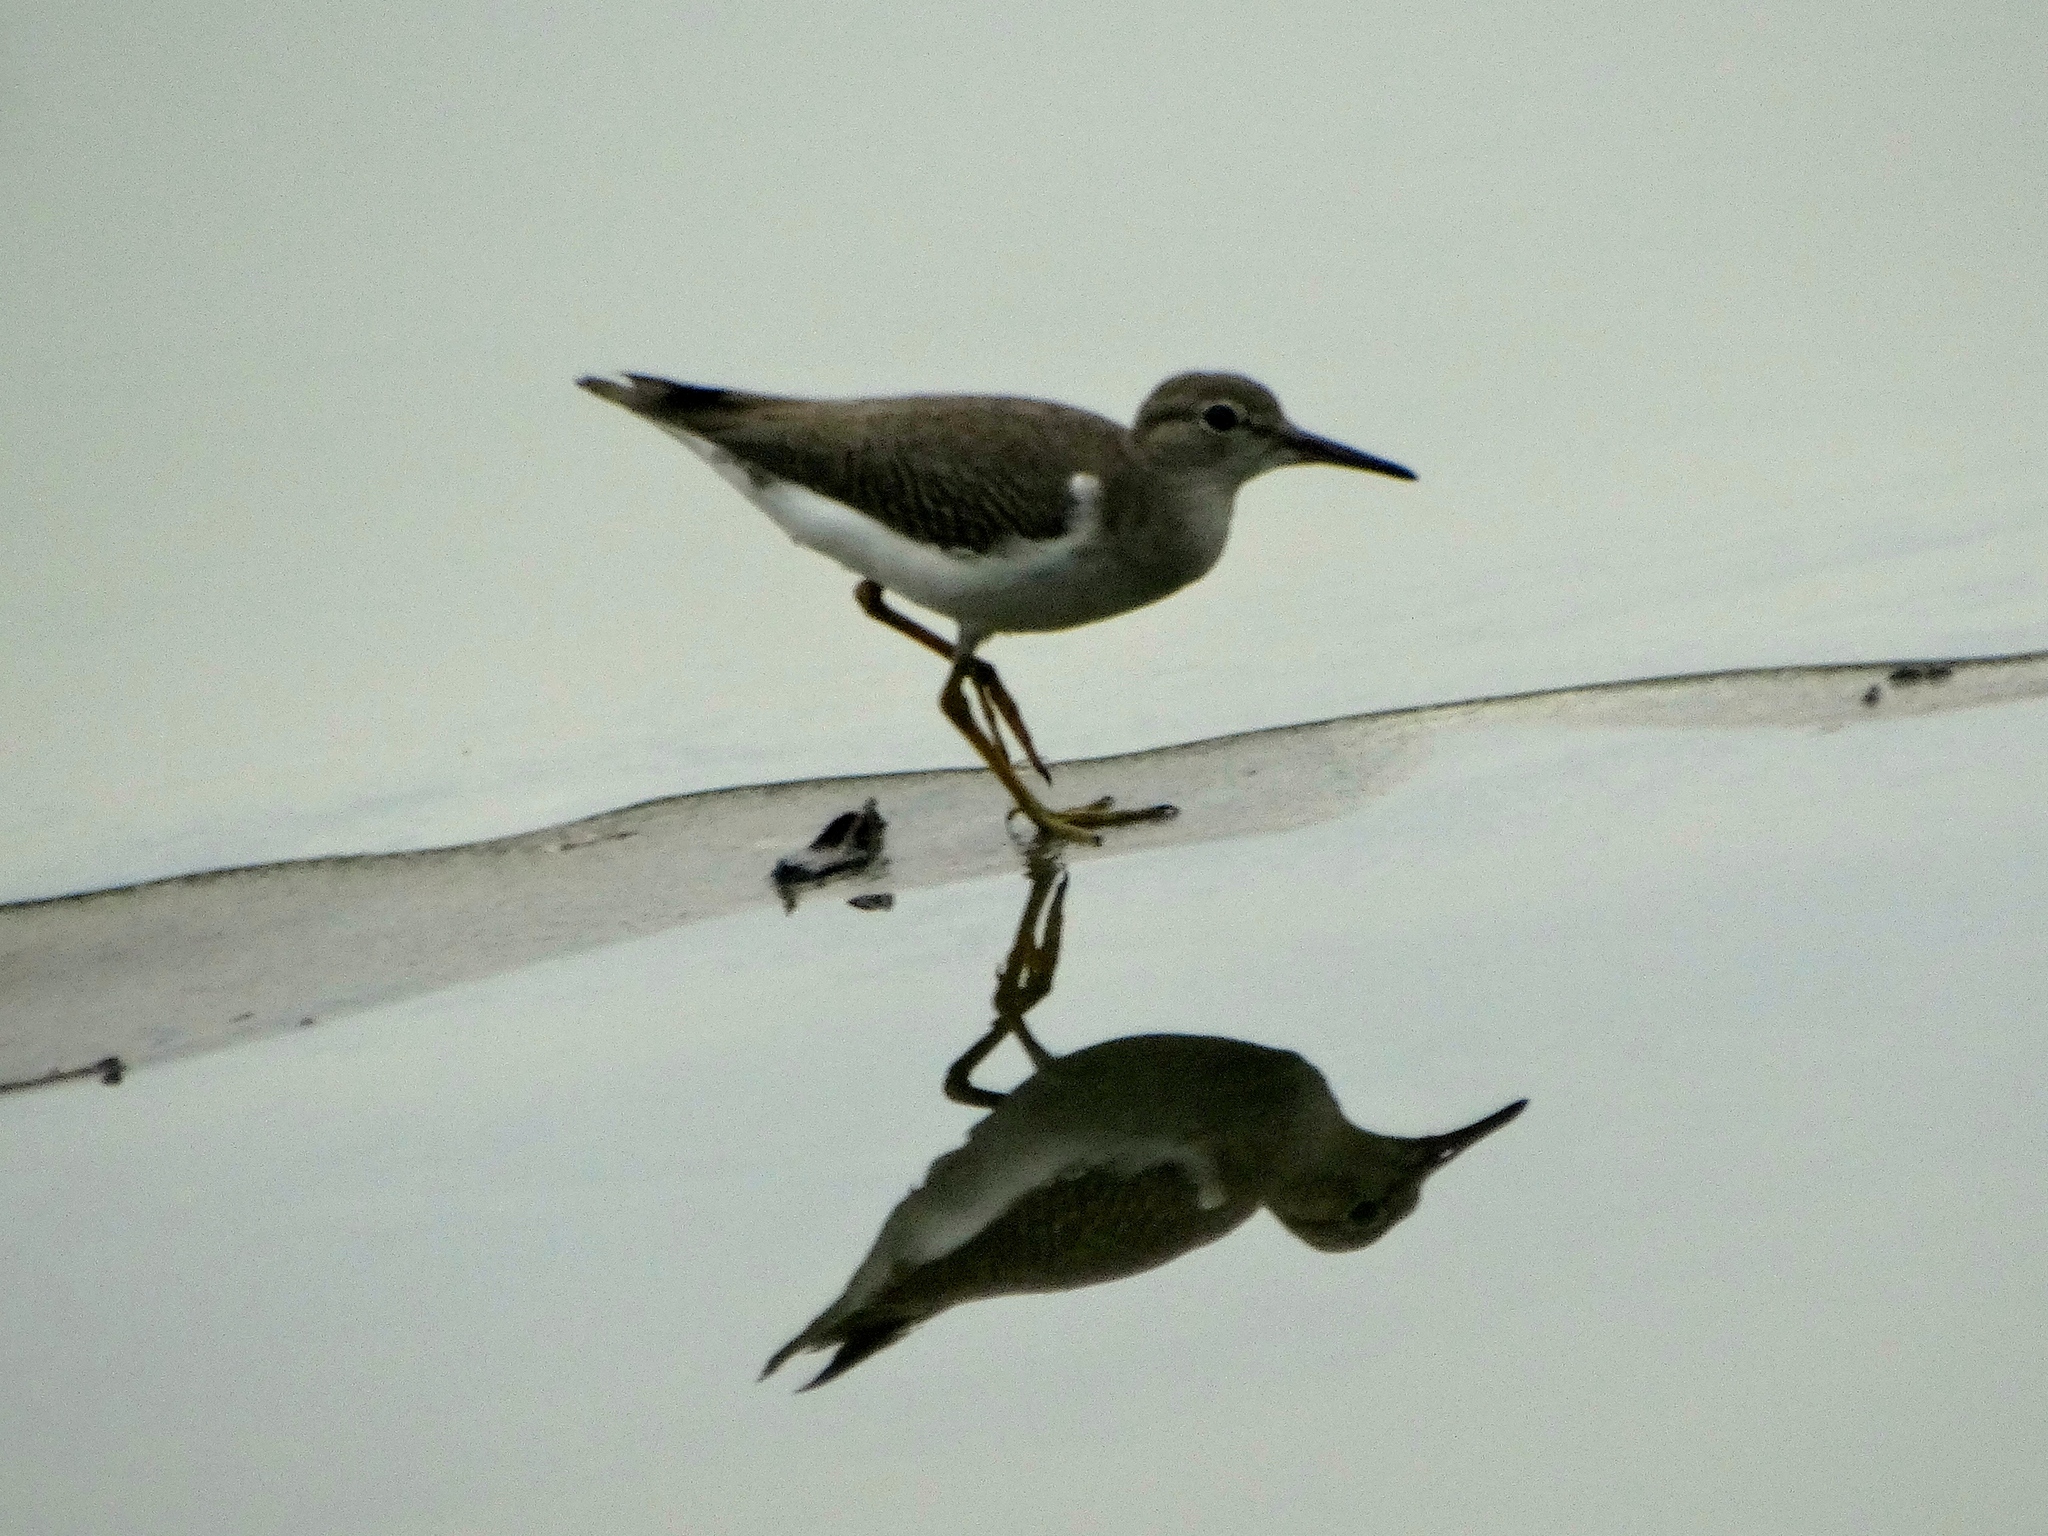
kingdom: Animalia
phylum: Chordata
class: Aves
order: Charadriiformes
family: Scolopacidae
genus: Actitis
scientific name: Actitis macularius
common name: Spotted sandpiper
